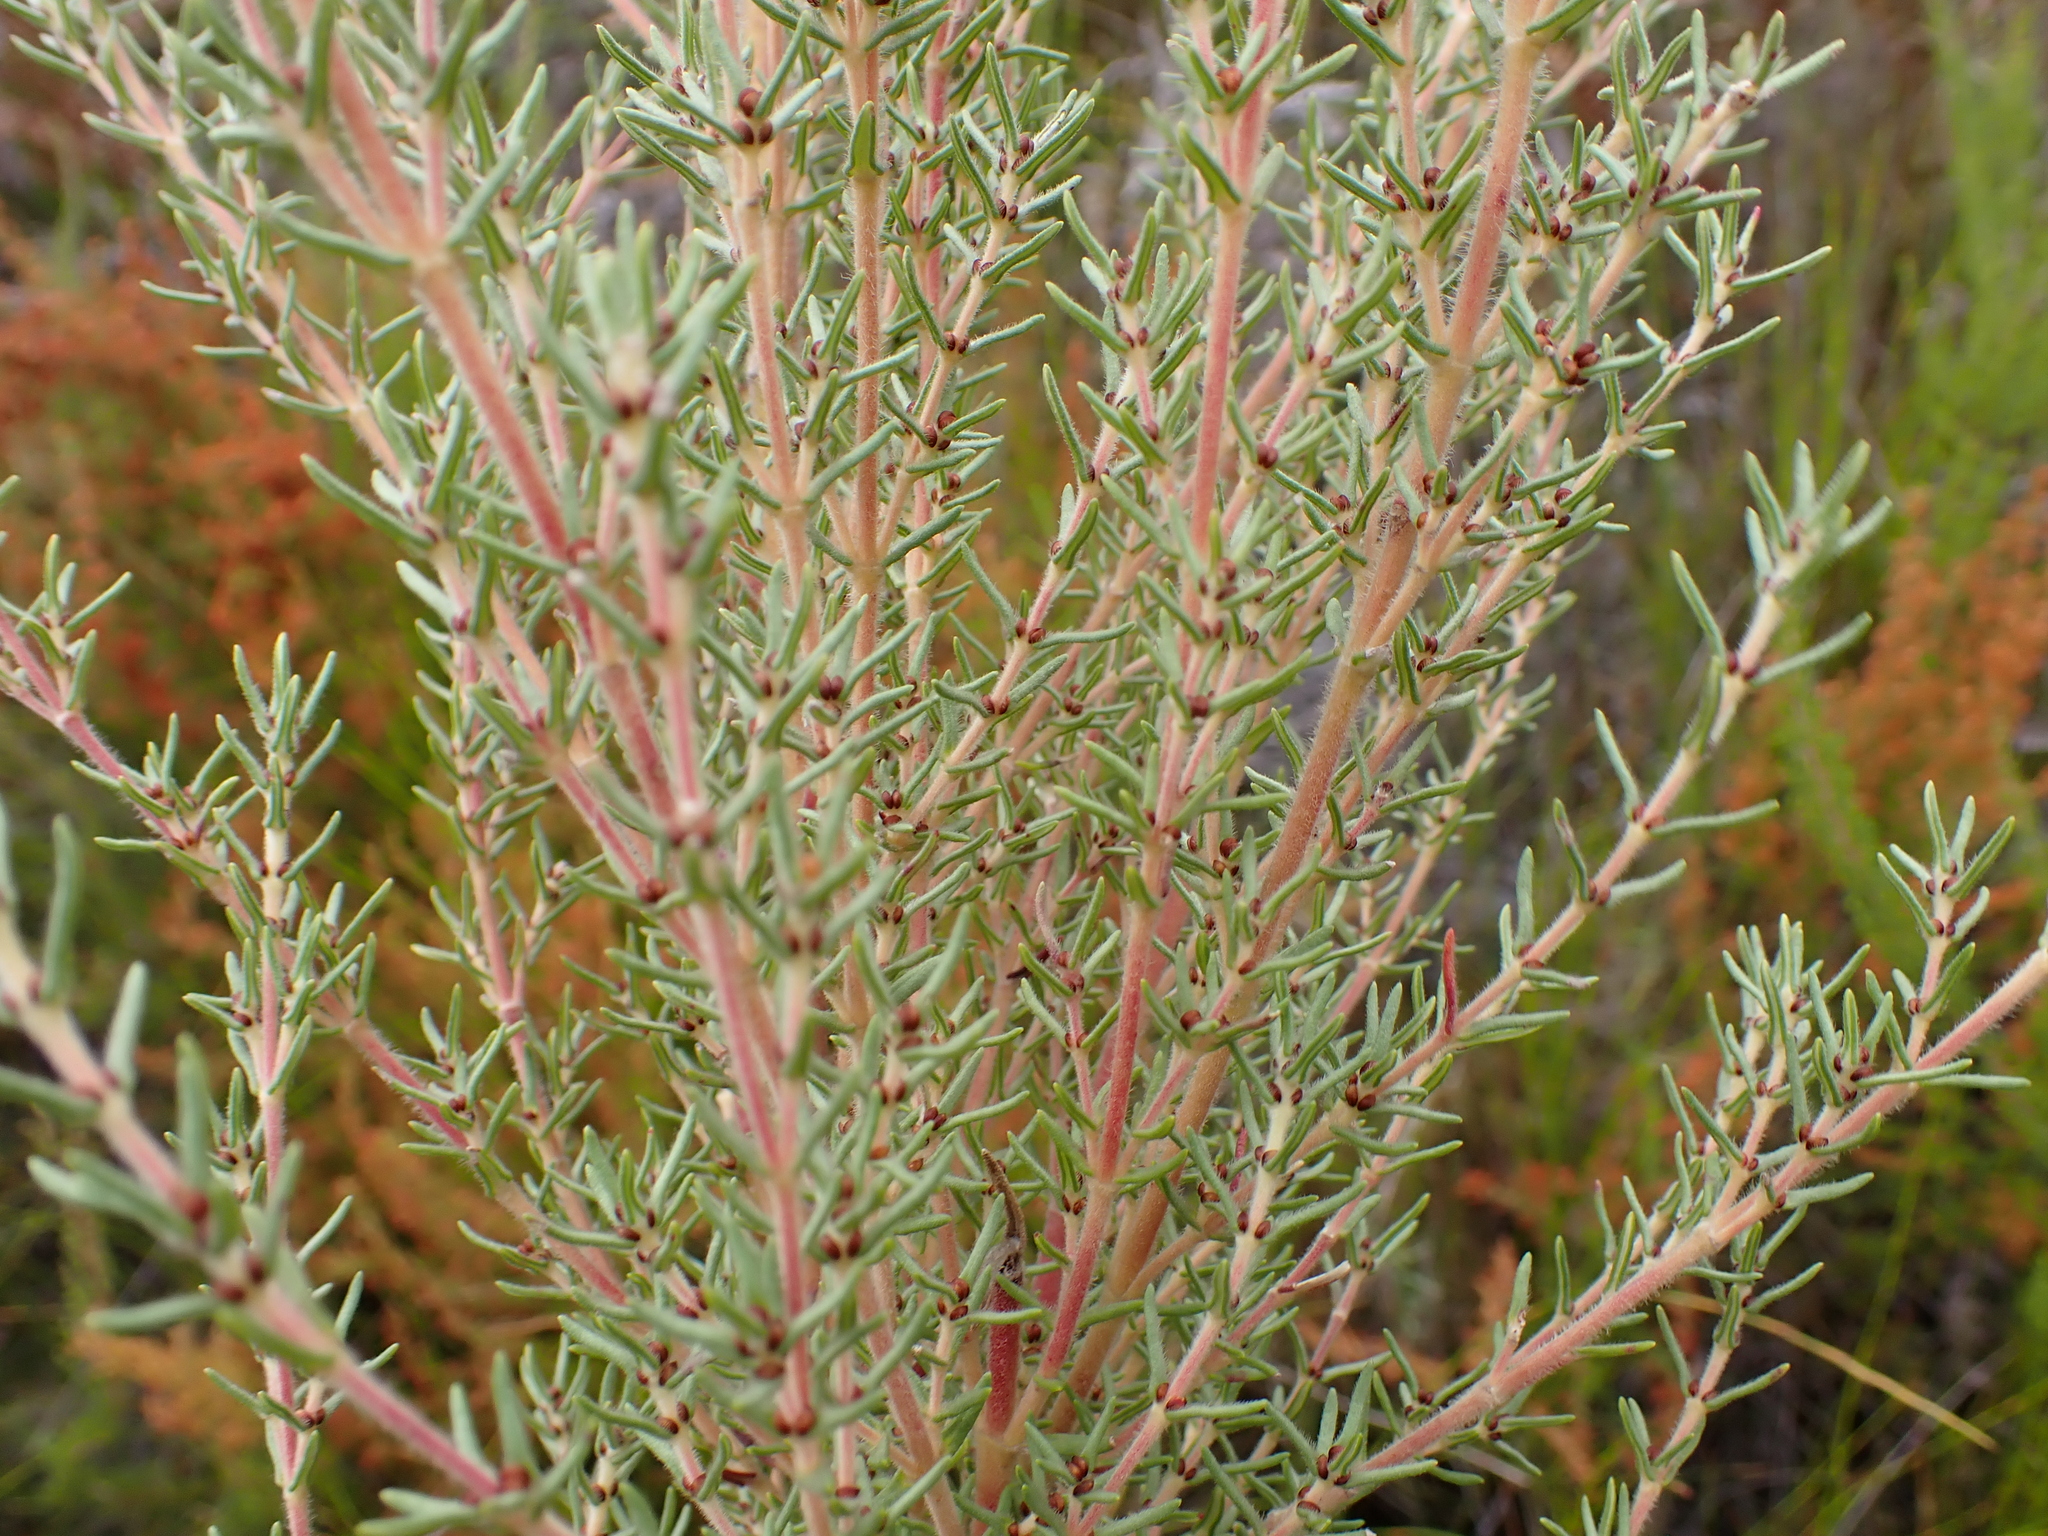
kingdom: Plantae
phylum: Tracheophyta
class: Magnoliopsida
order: Cornales
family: Grubbiaceae
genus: Grubbia
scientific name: Grubbia rosmarinifolia
